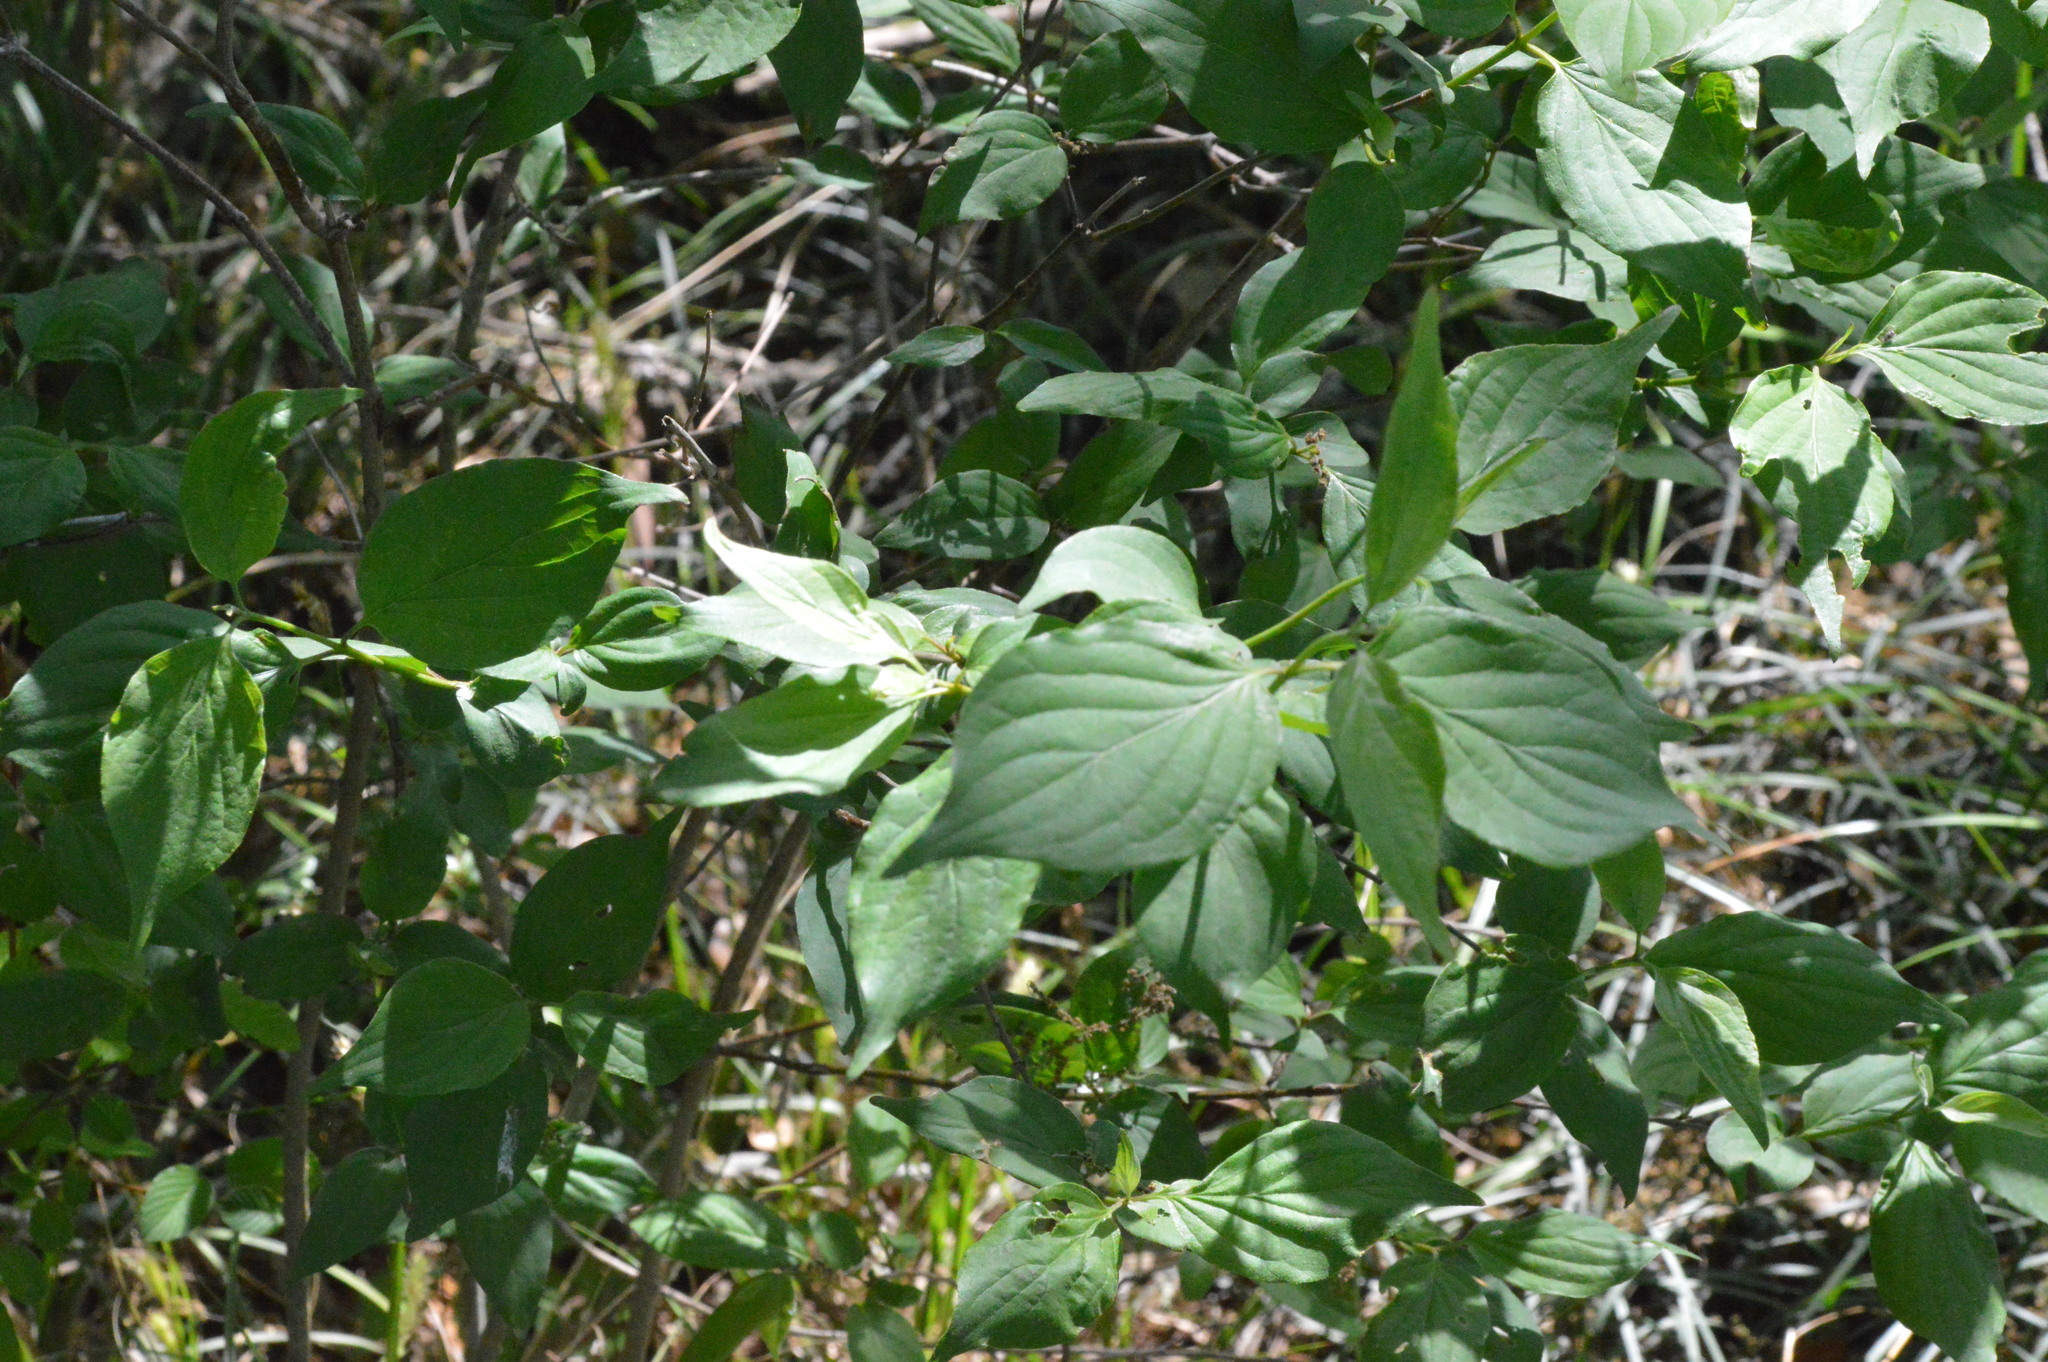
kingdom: Plantae
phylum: Tracheophyta
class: Magnoliopsida
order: Cornales
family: Cornaceae
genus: Cornus
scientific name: Cornus drummondii
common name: Rough-leaf dogwood
